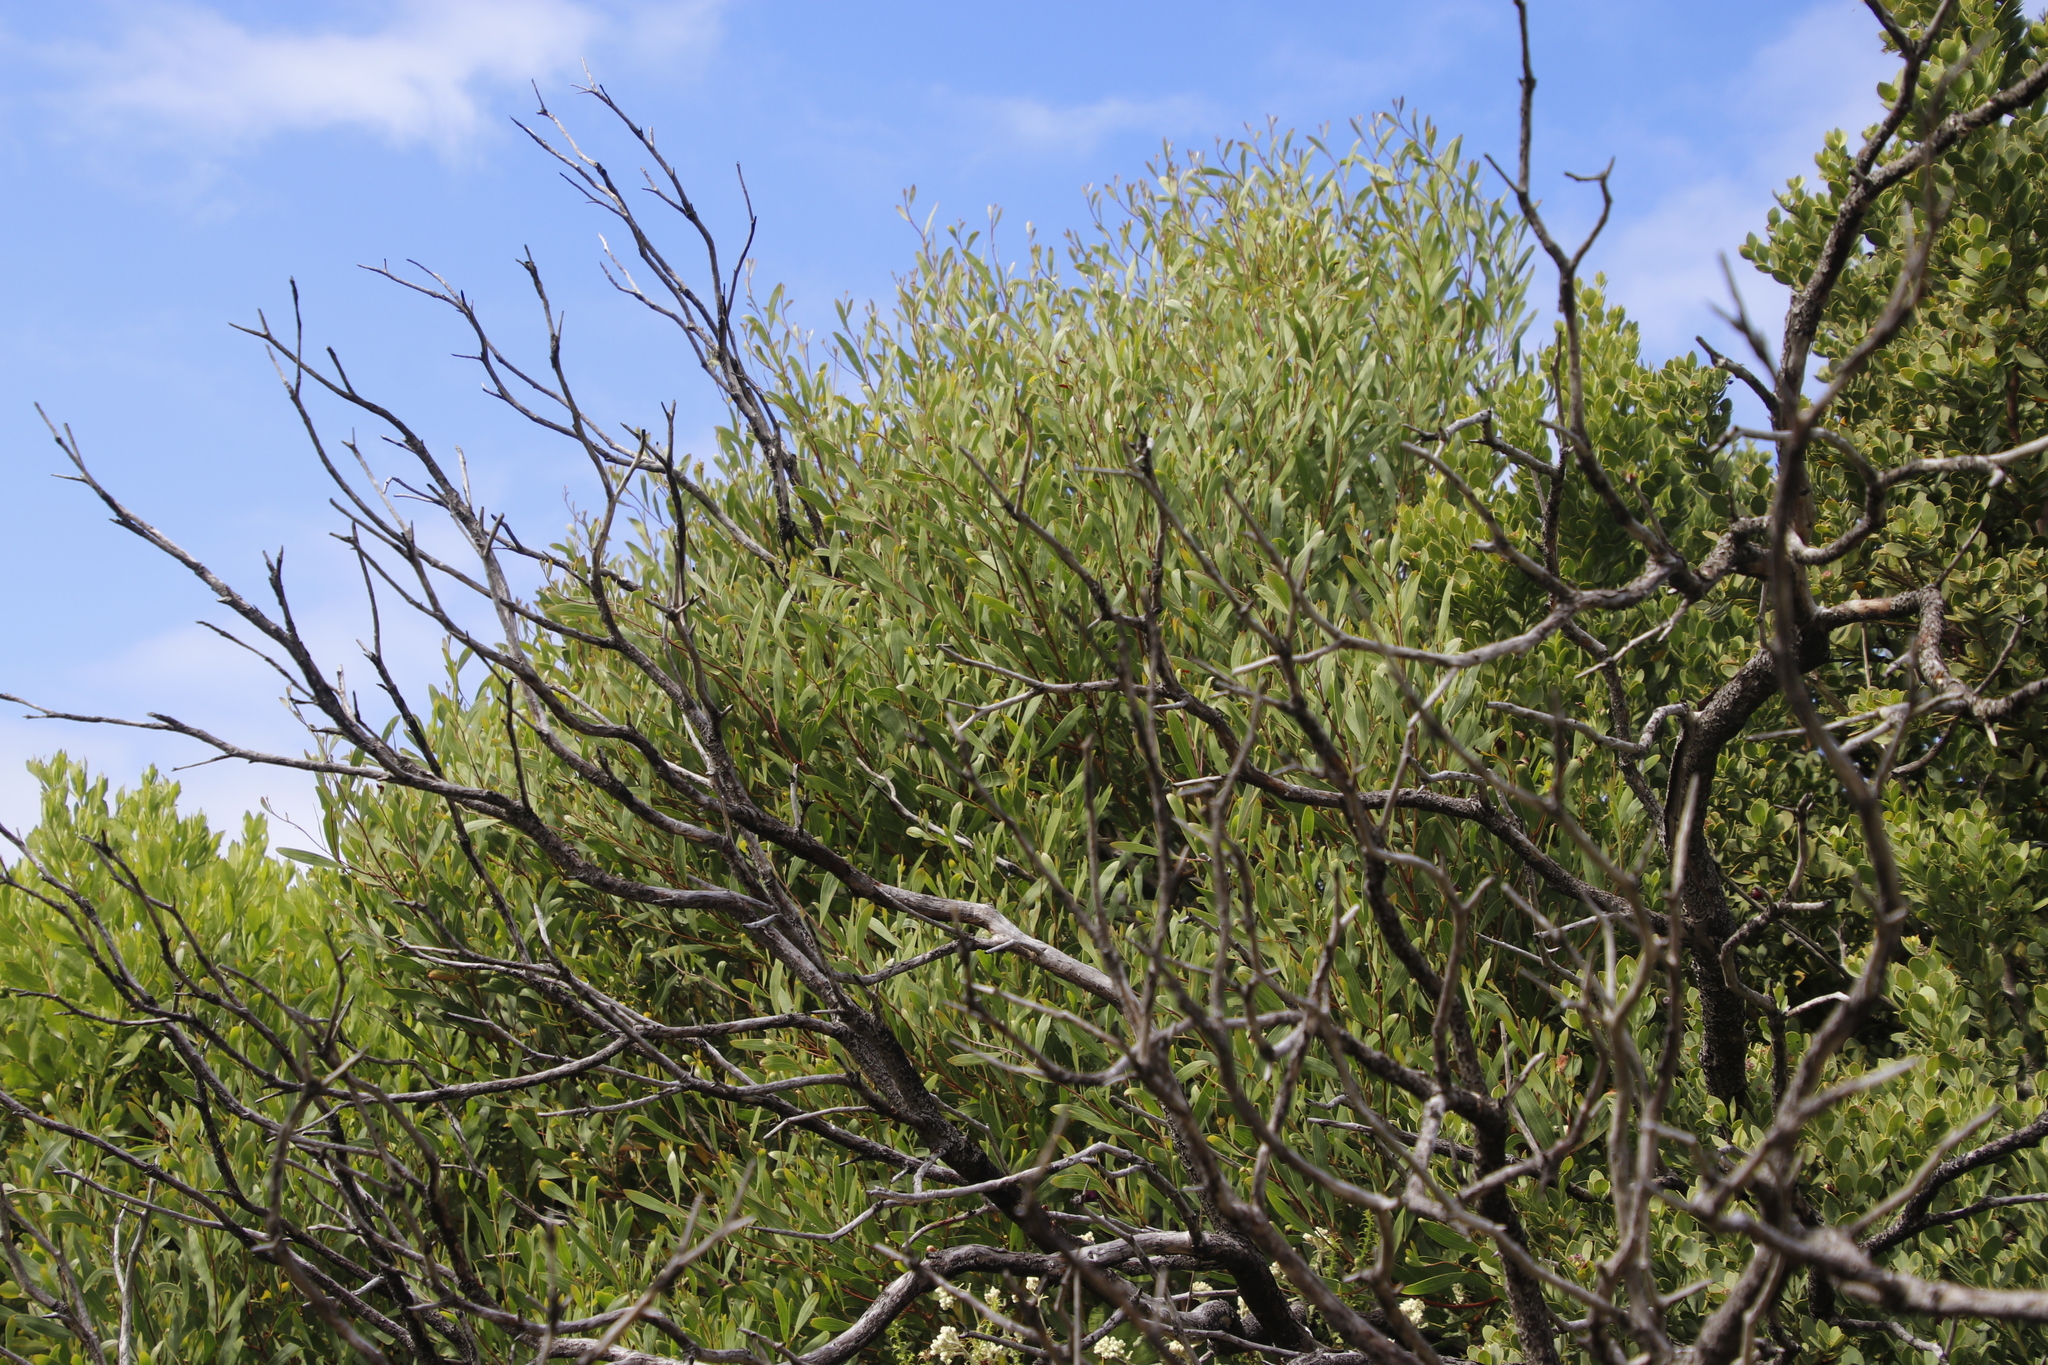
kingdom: Plantae
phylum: Tracheophyta
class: Magnoliopsida
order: Fabales
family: Fabaceae
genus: Acacia
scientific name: Acacia cyclops
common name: Coastal wattle
